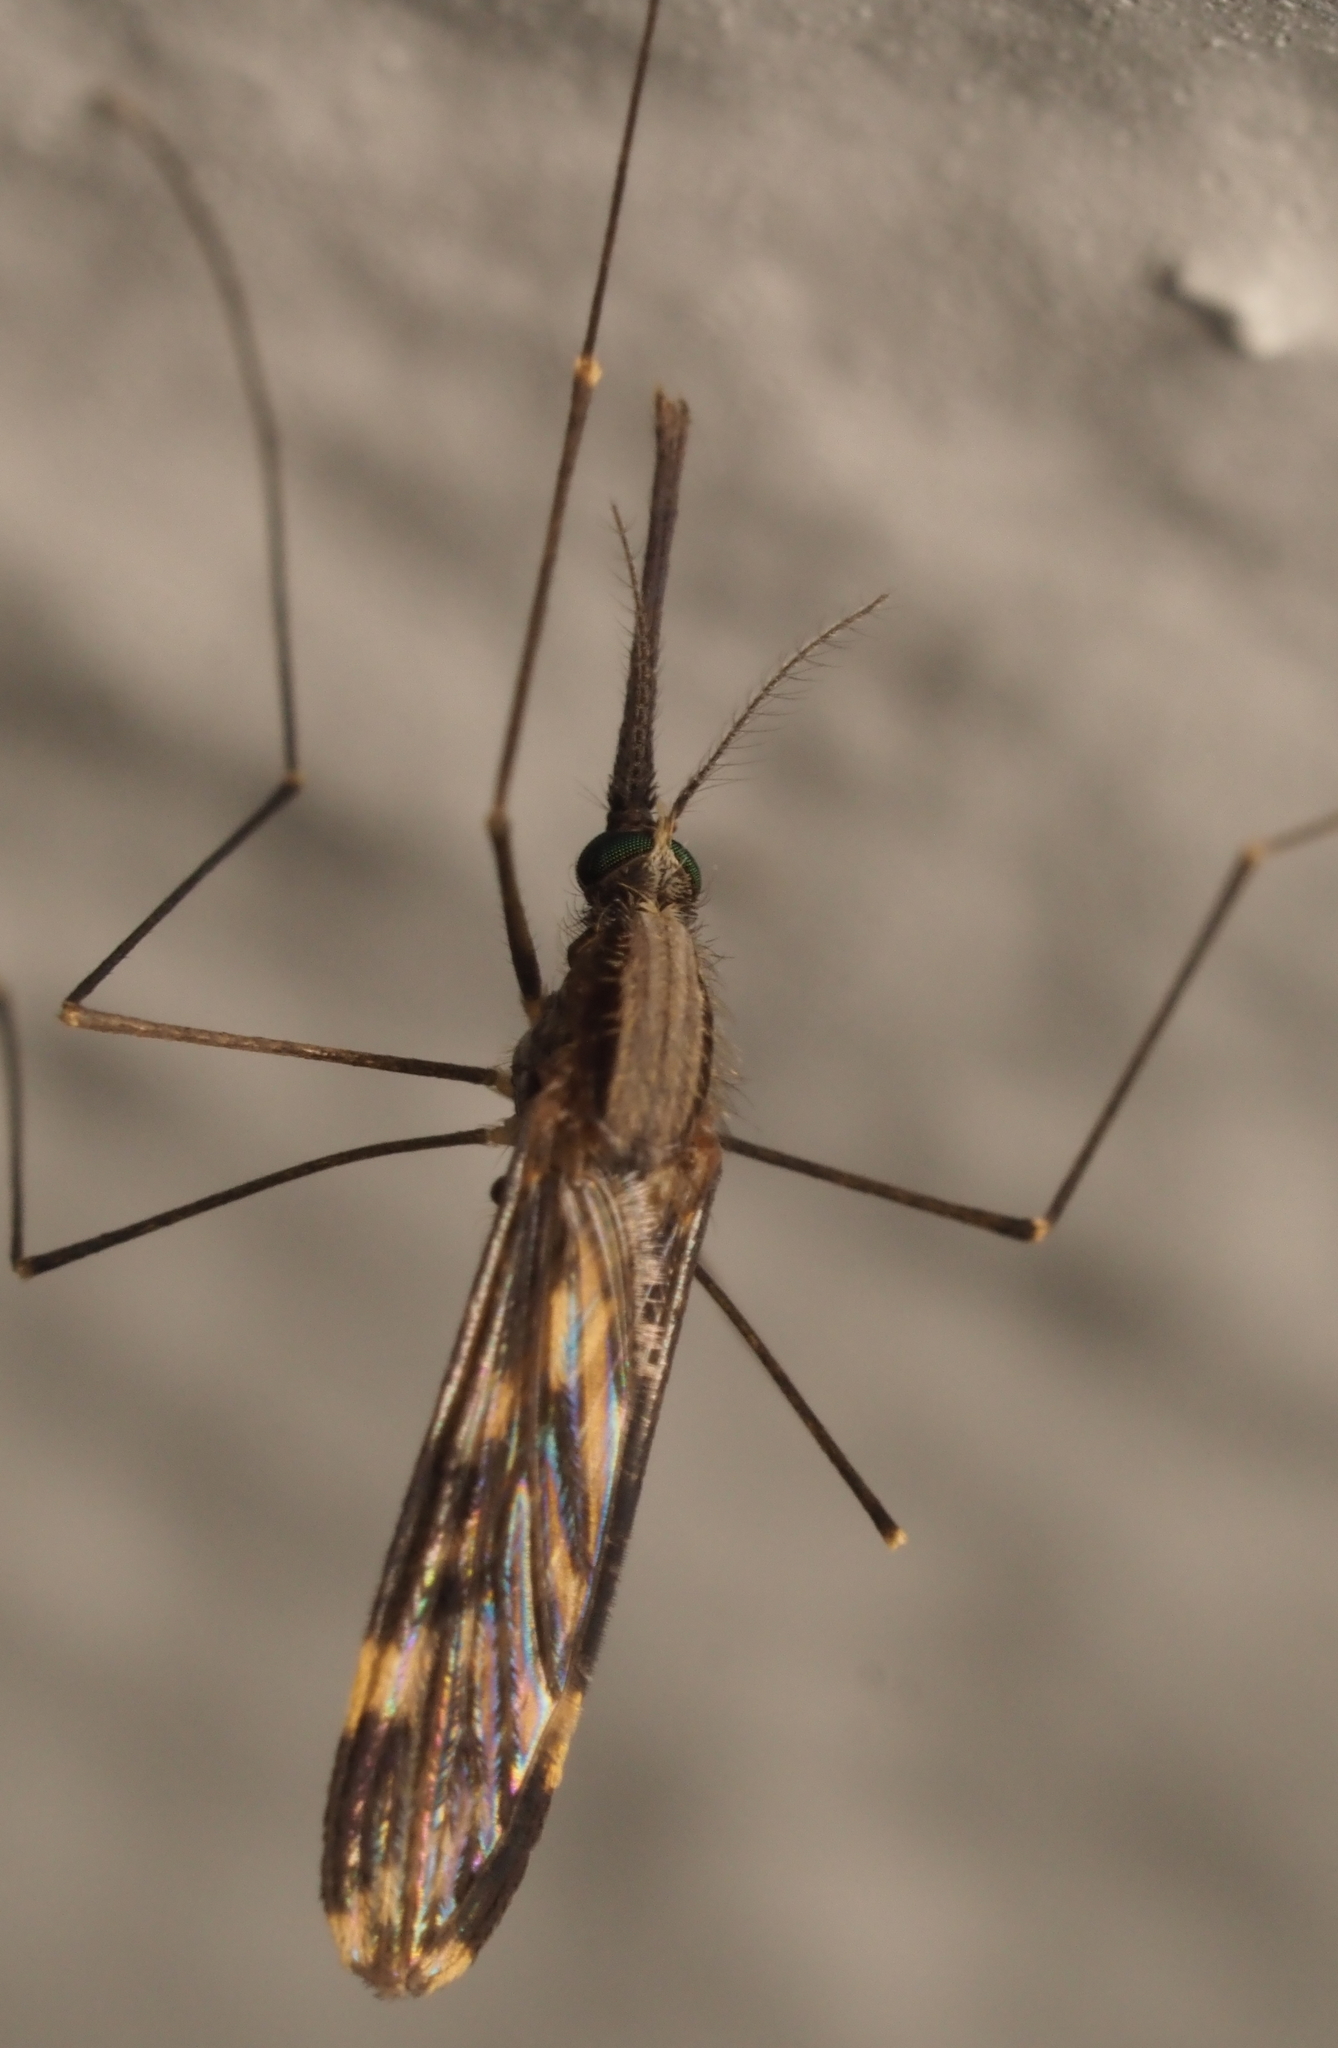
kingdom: Animalia
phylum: Arthropoda
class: Insecta
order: Diptera
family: Culicidae
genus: Anopheles
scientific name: Anopheles punctipennis
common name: Woodland malaria mosquito
